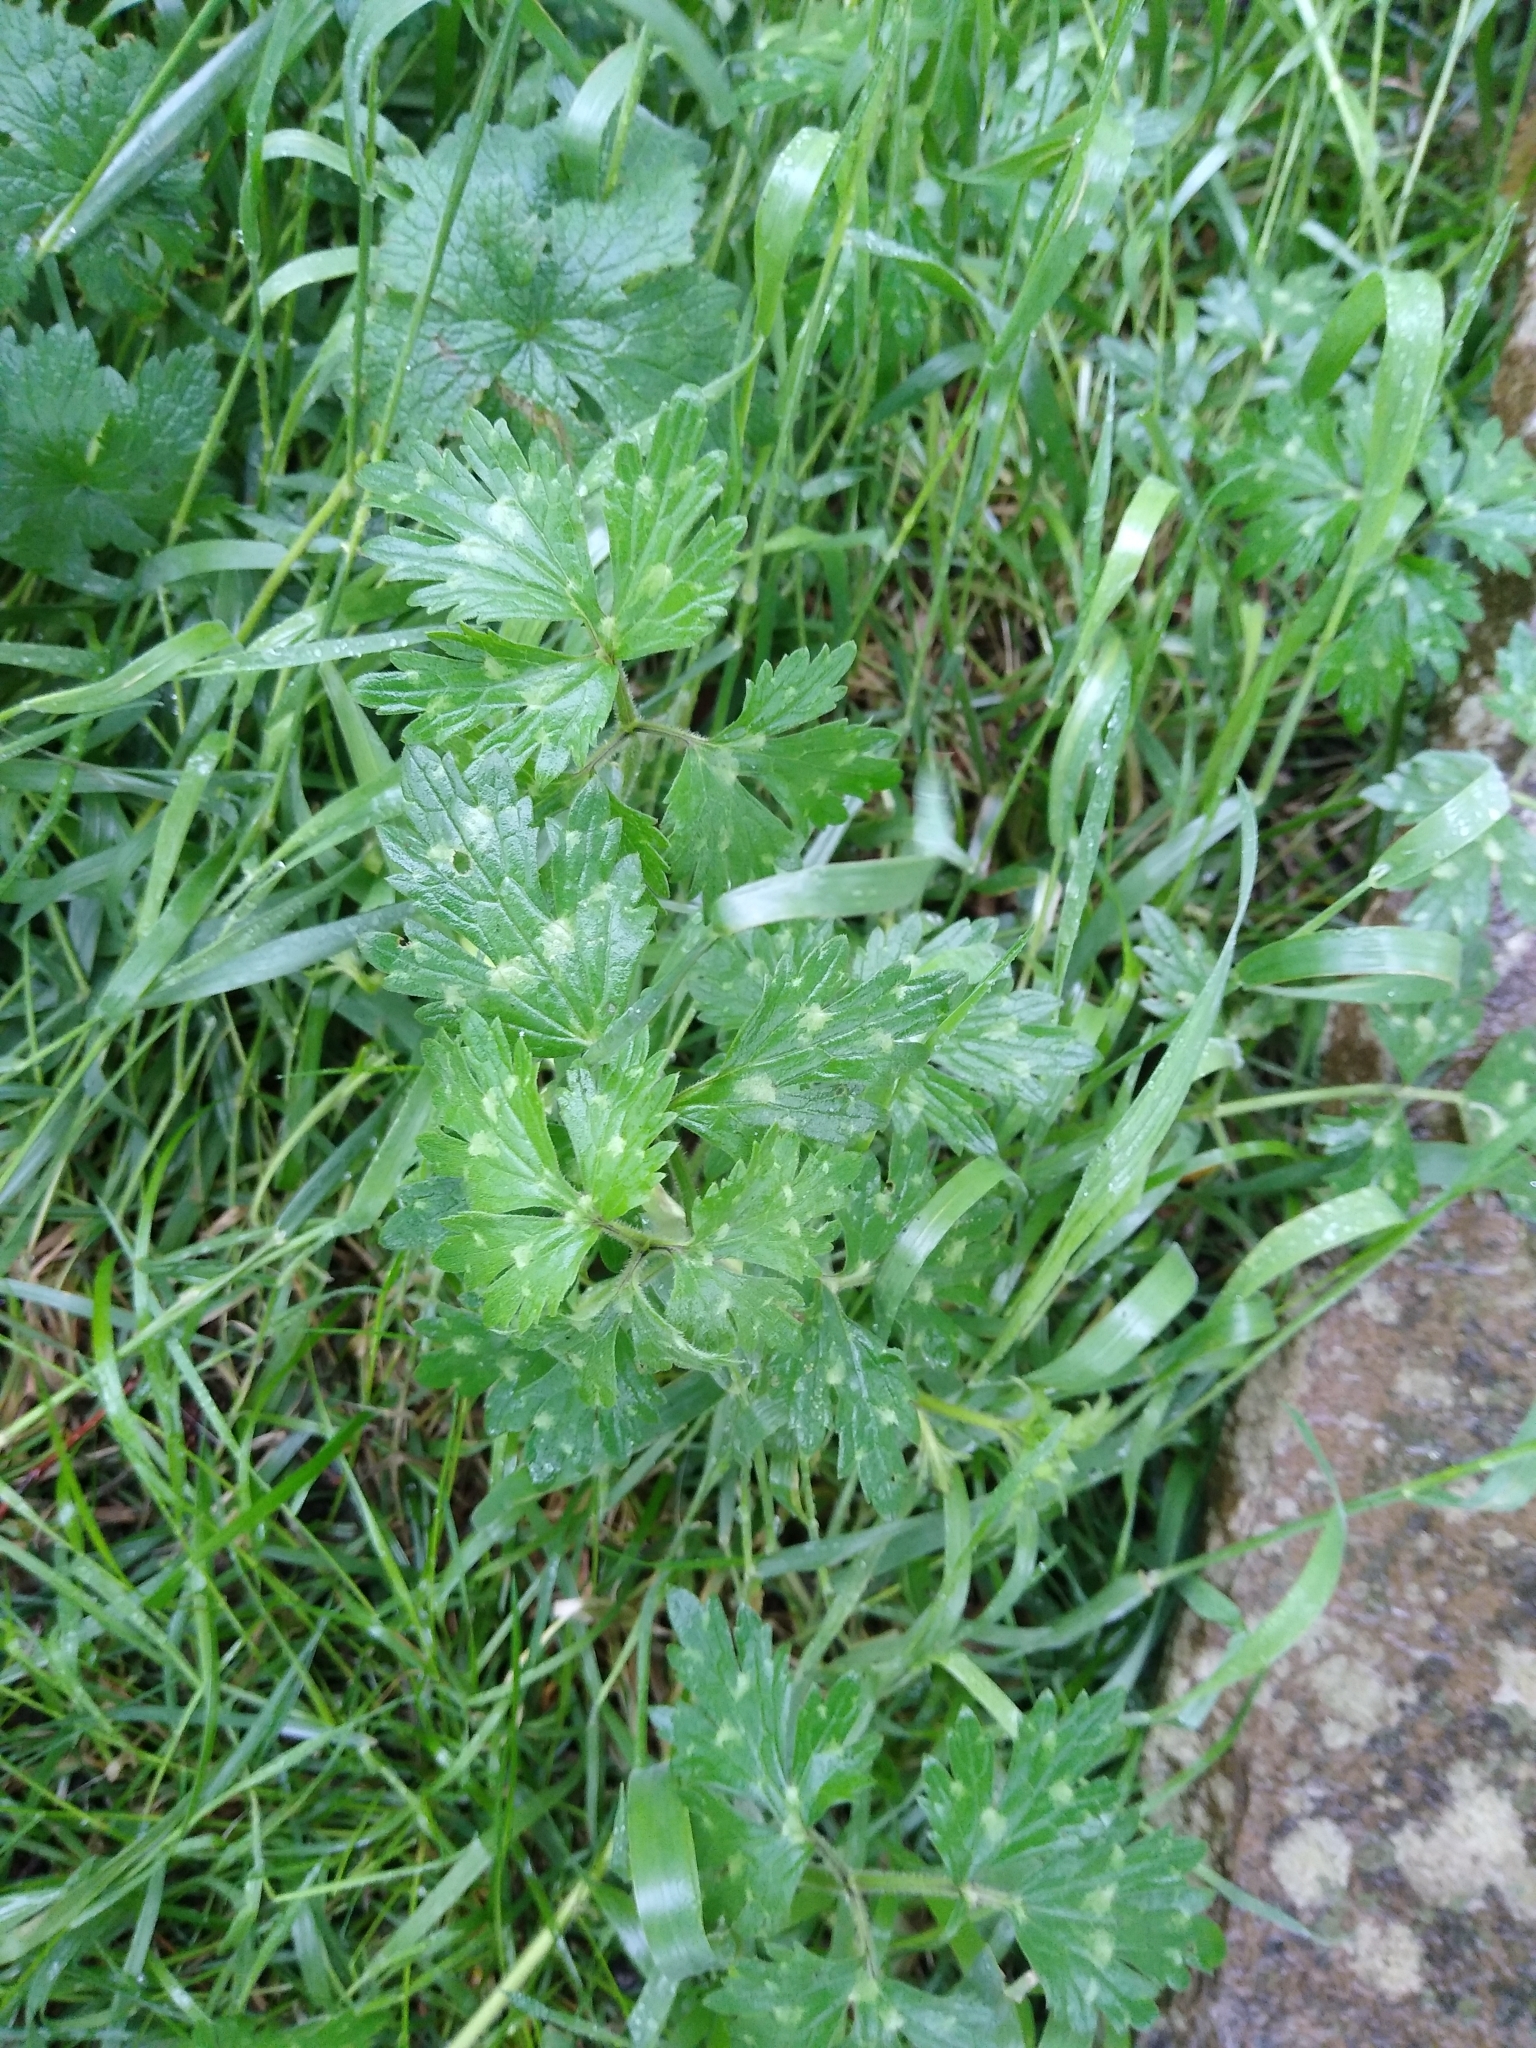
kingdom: Plantae
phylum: Tracheophyta
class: Magnoliopsida
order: Ranunculales
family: Ranunculaceae
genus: Ranunculus
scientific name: Ranunculus repens
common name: Creeping buttercup
